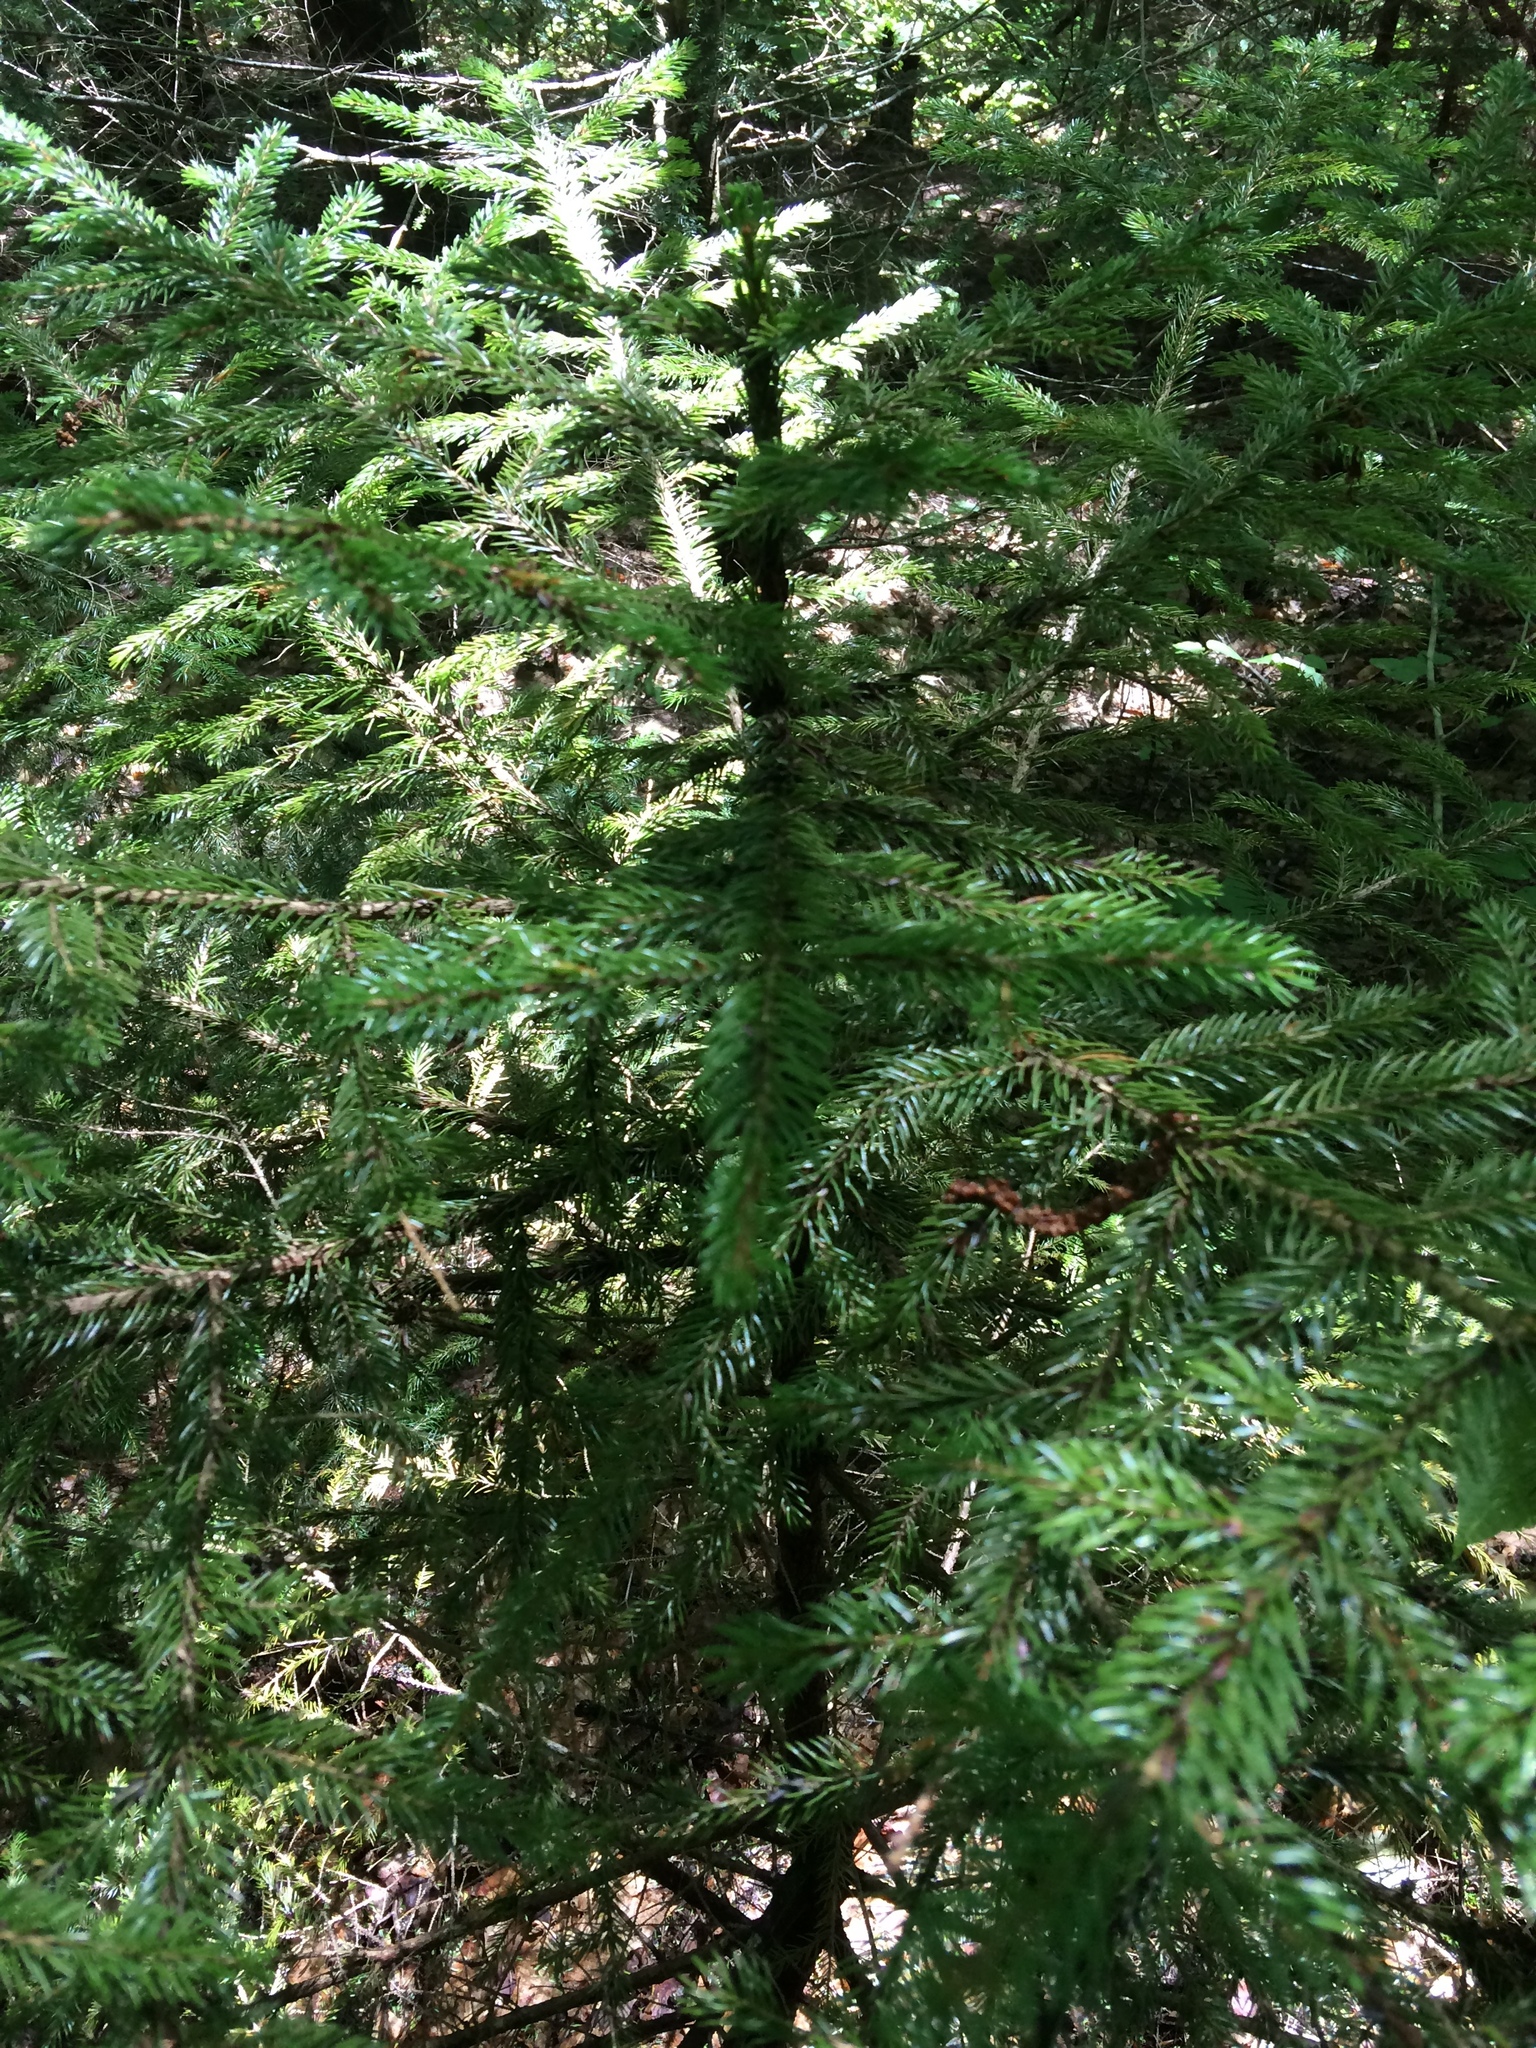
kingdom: Plantae
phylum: Tracheophyta
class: Pinopsida
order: Pinales
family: Pinaceae
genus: Picea
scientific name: Picea rubens
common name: Red spruce
